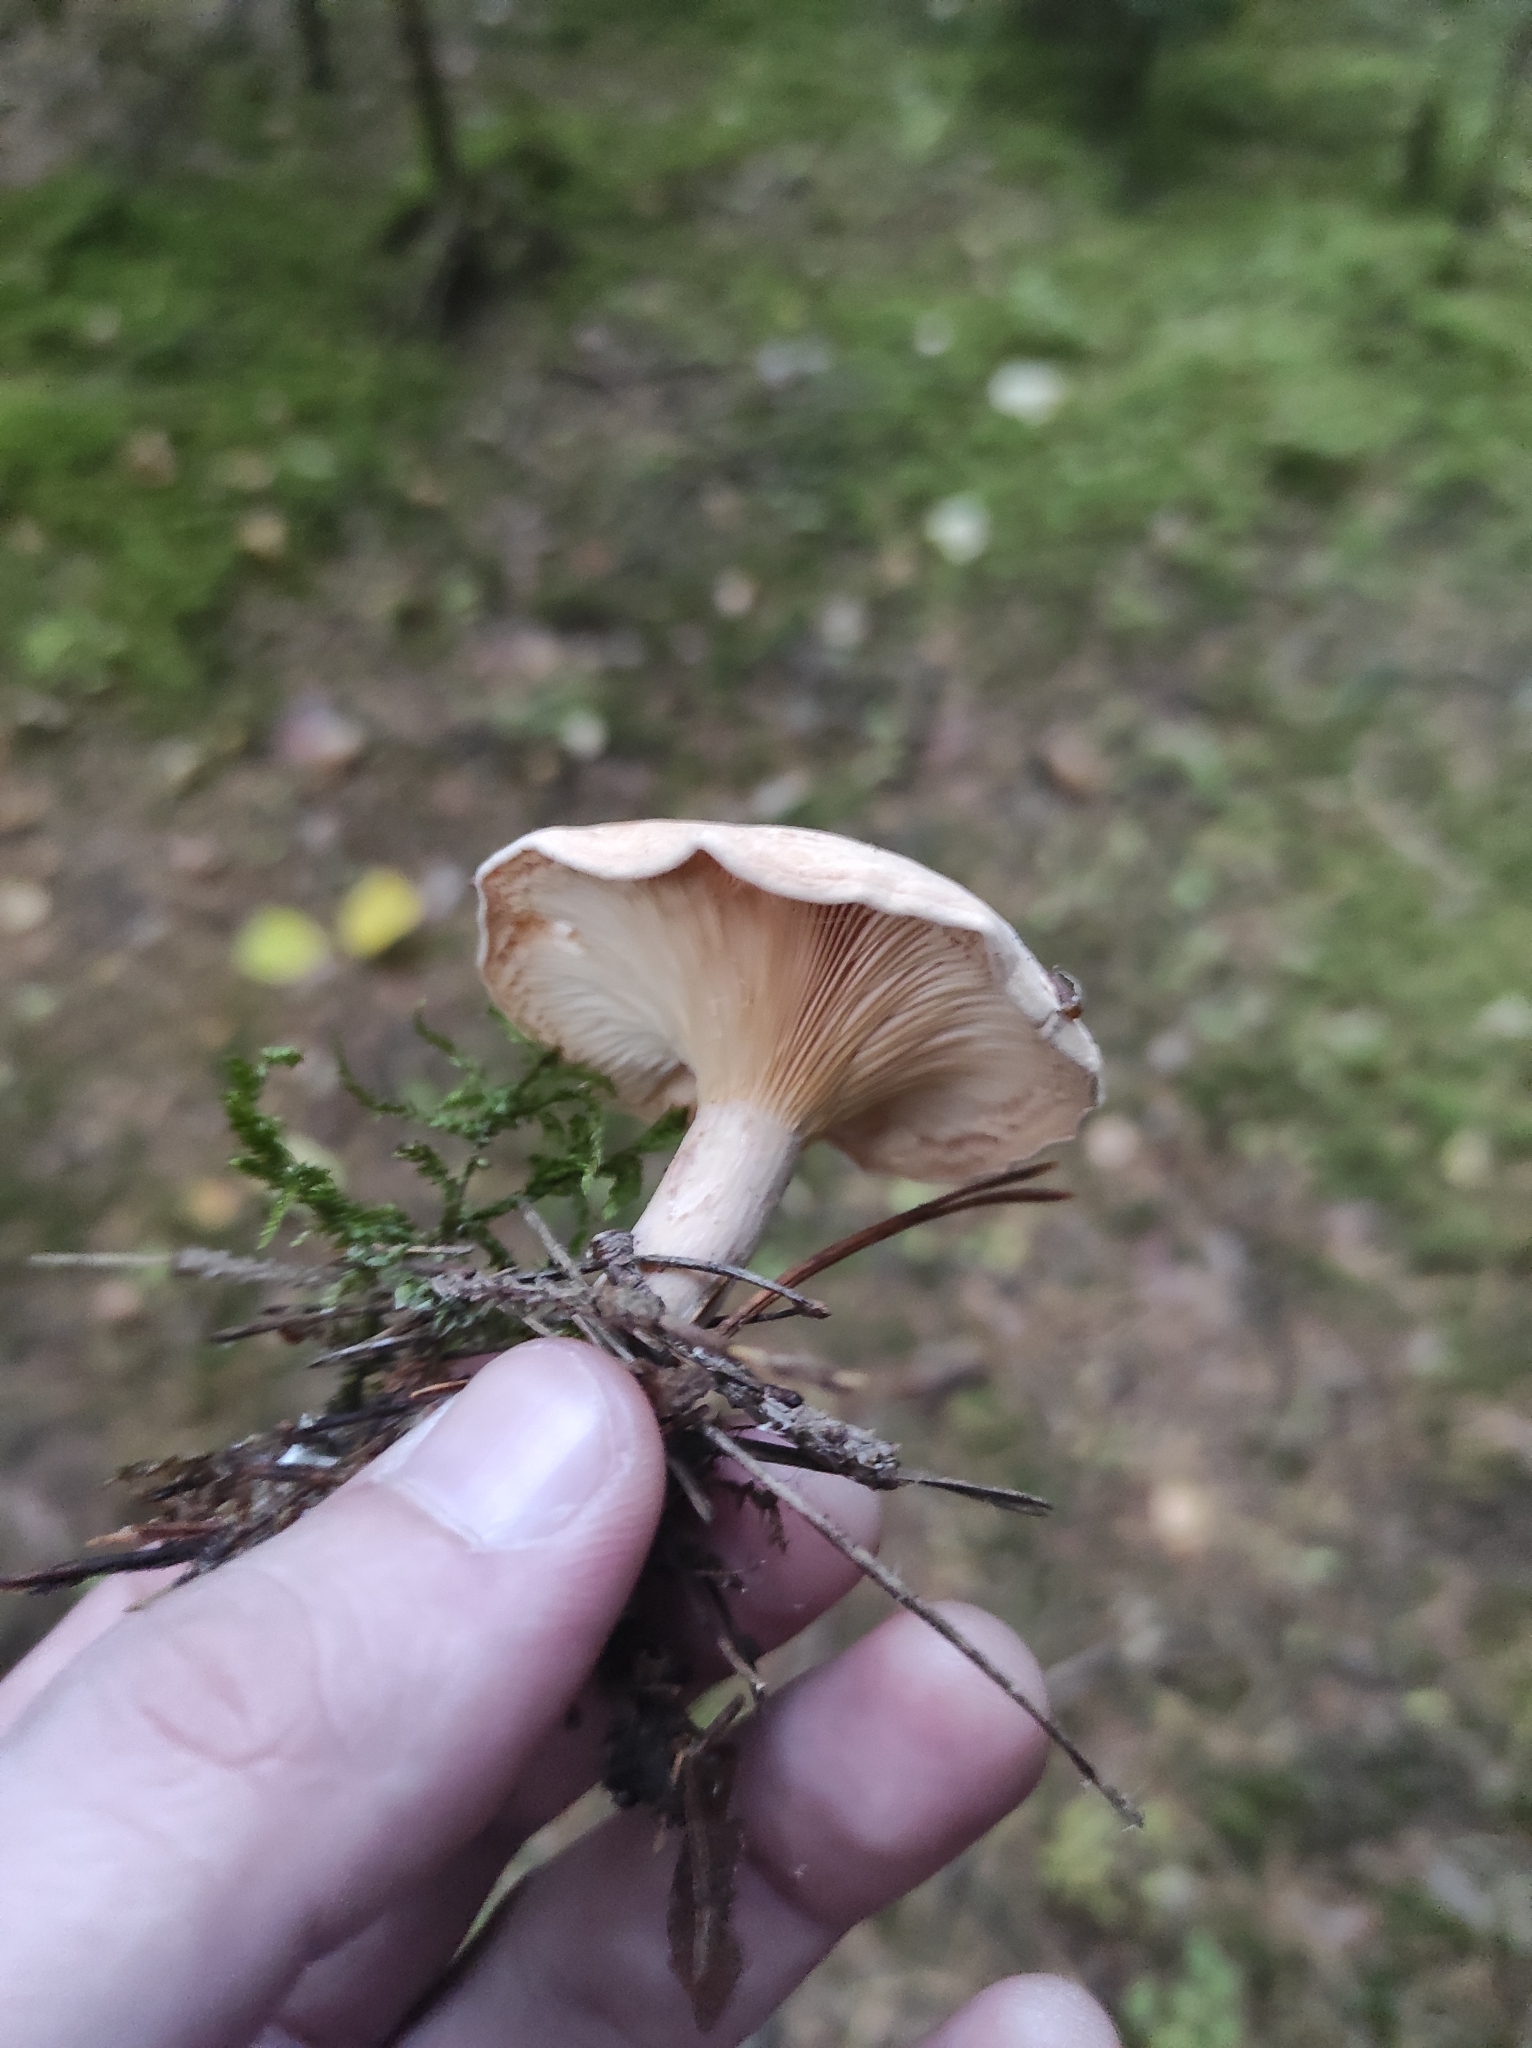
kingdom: Fungi
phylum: Basidiomycota
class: Agaricomycetes
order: Agaricales
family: Tricholomataceae
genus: Clitocybe
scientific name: Clitocybe fragrans
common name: Fragrant funnel
